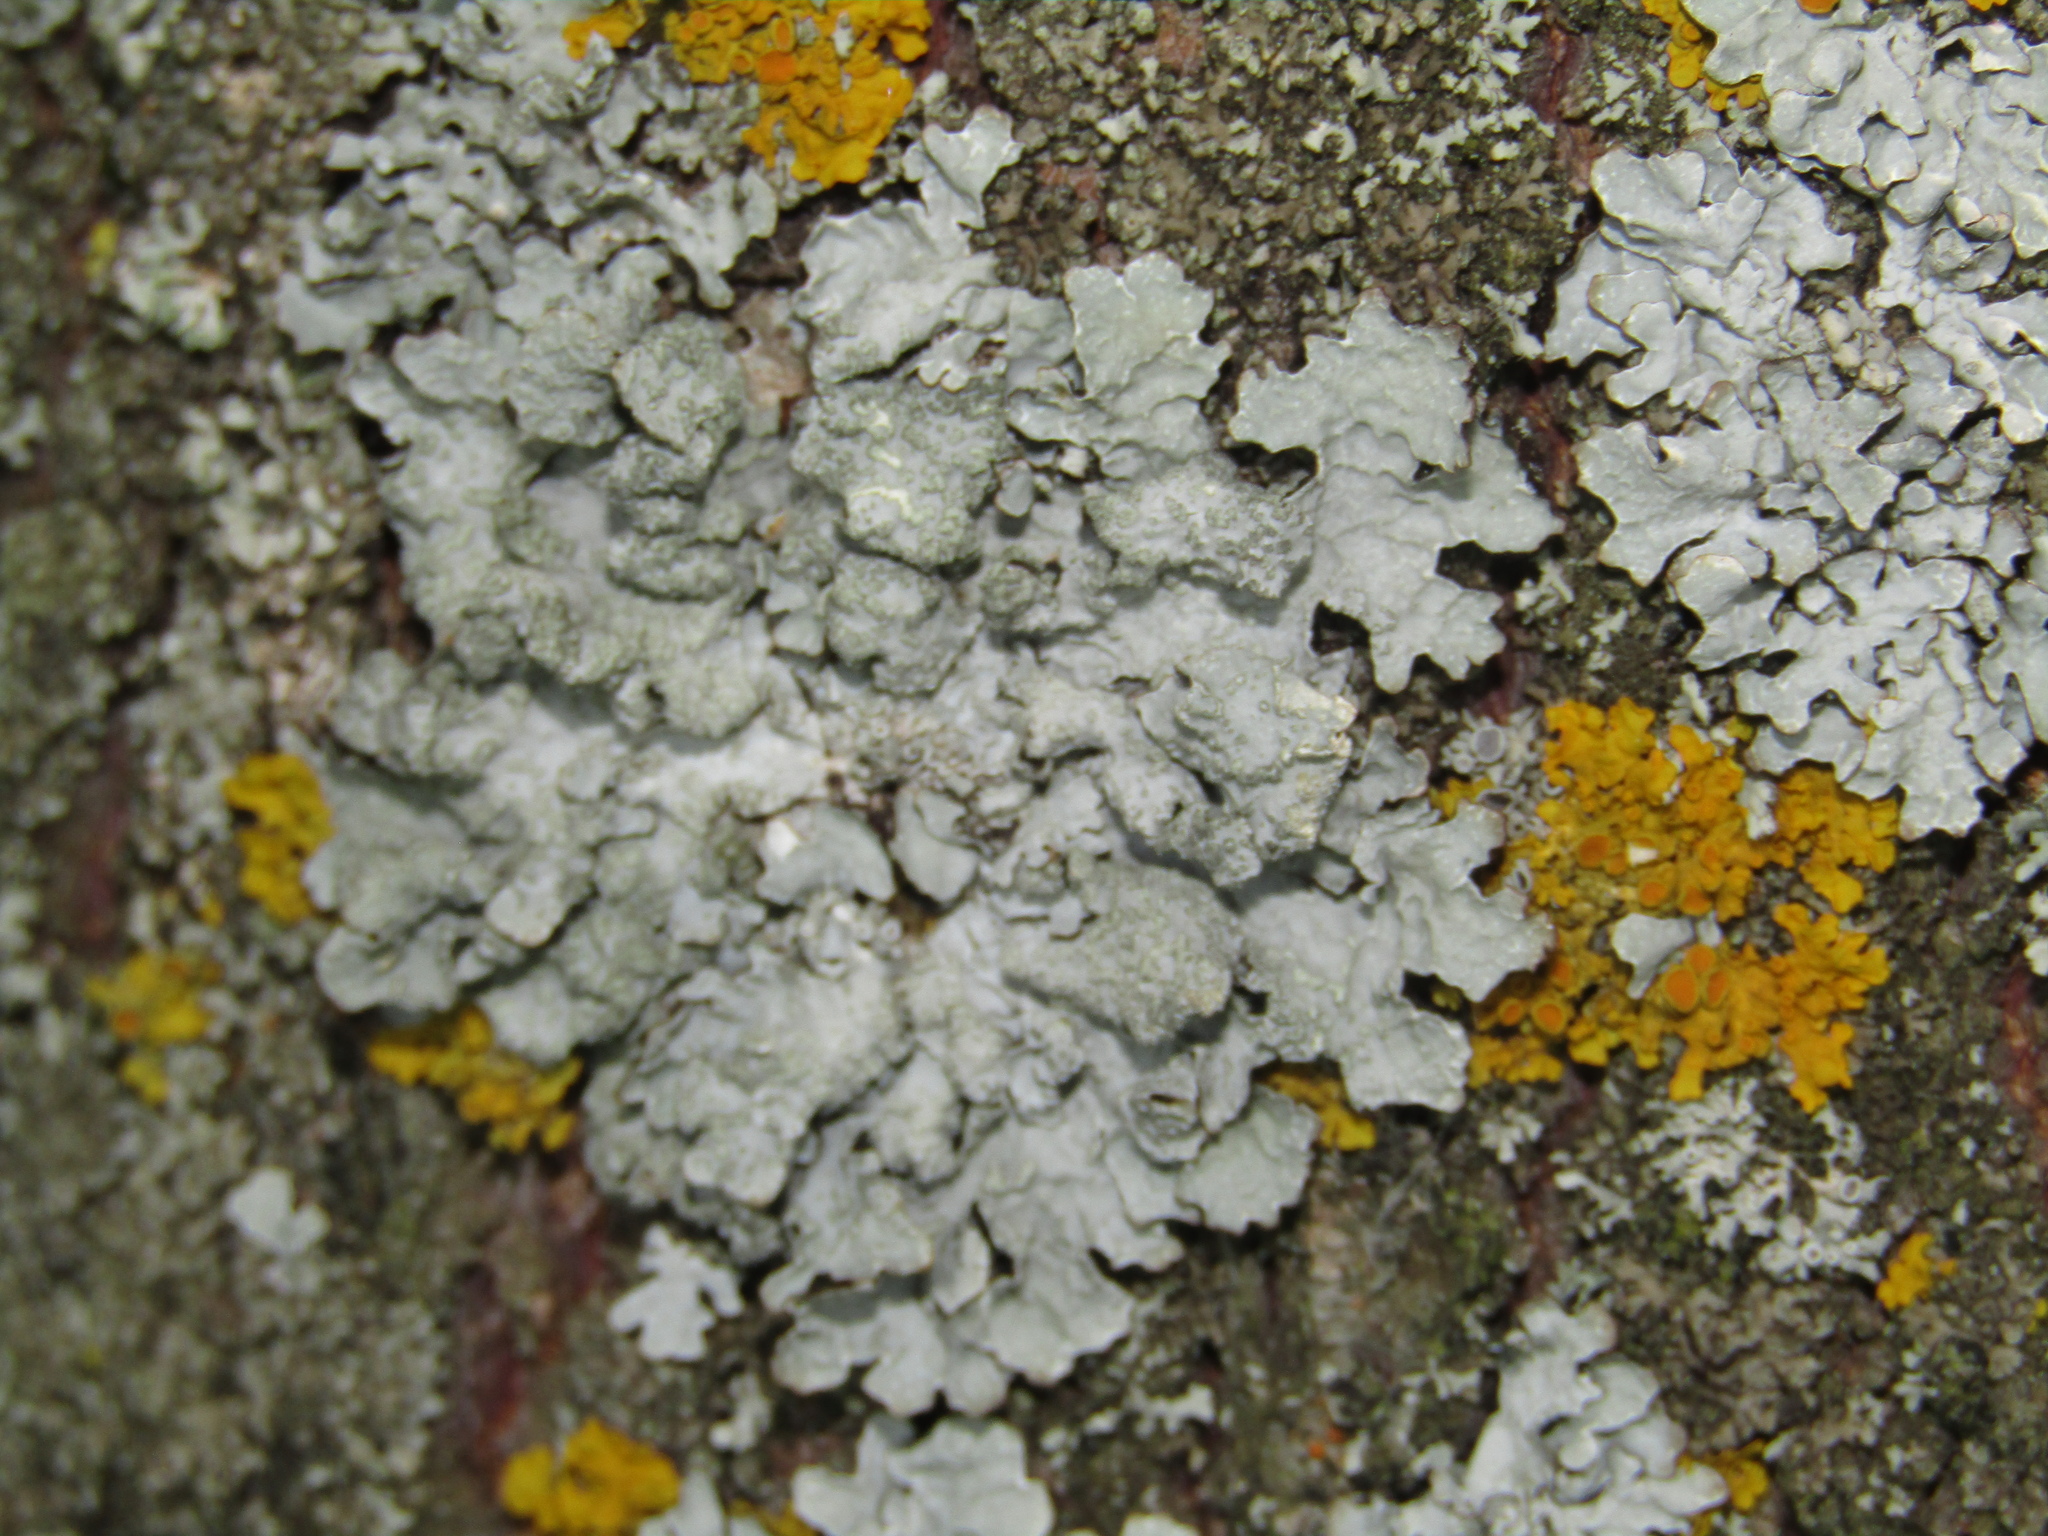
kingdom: Fungi
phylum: Ascomycota
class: Lecanoromycetes
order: Lecanorales
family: Parmeliaceae
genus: Parmelia
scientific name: Parmelia sulcata
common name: Netted shield lichen
